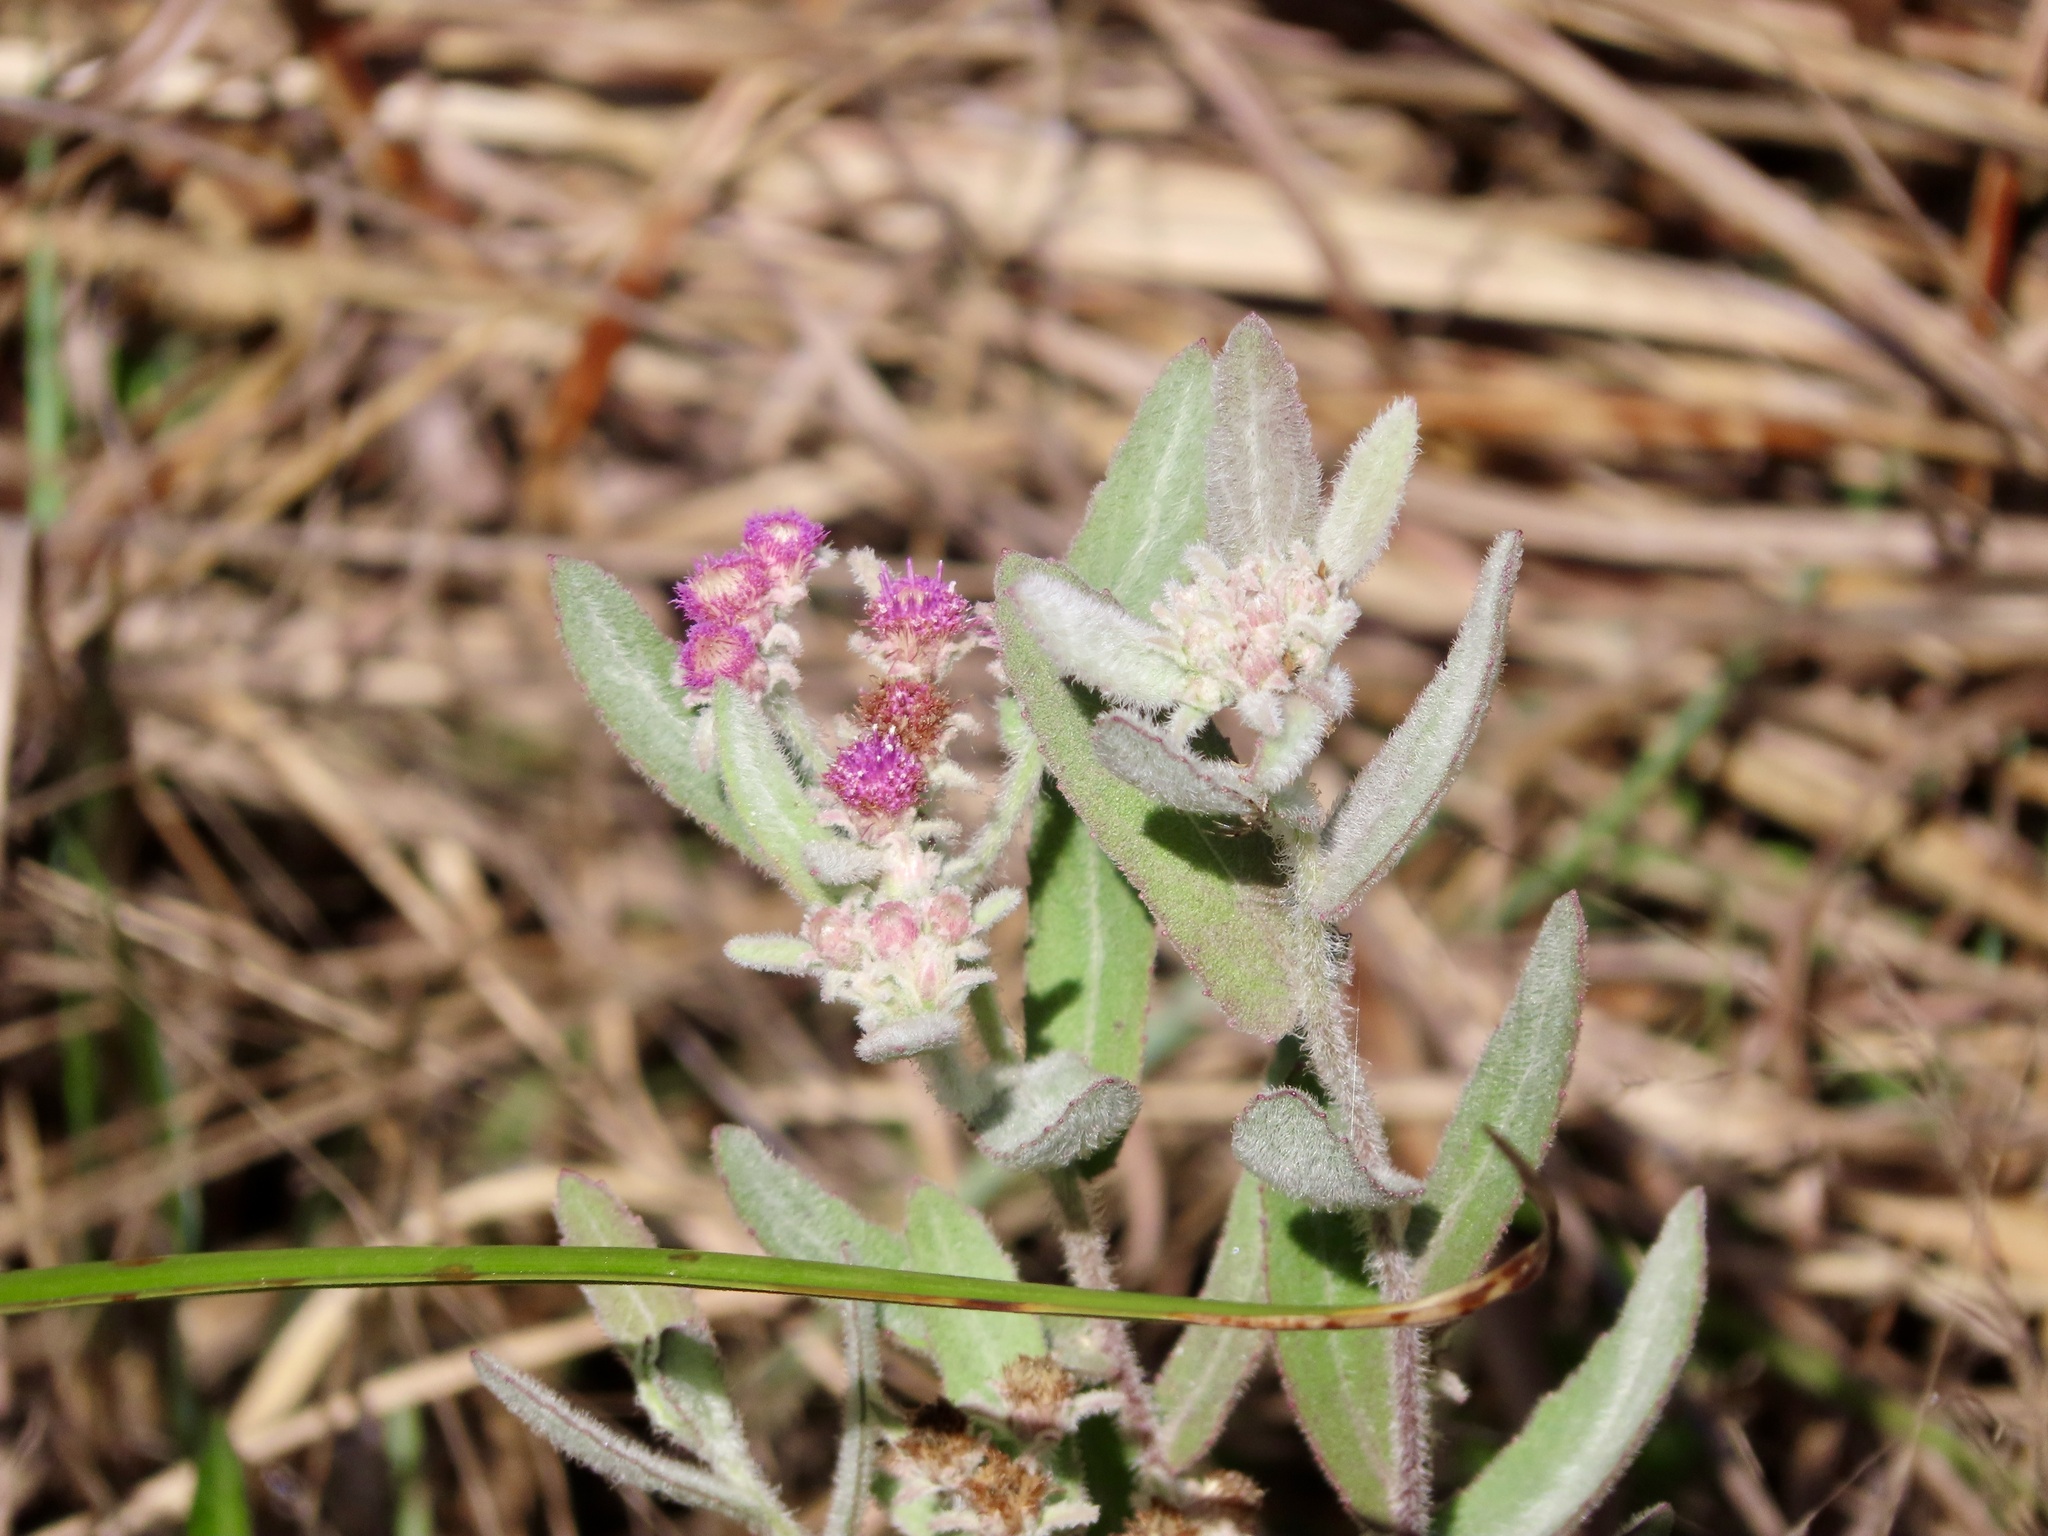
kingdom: Plantae
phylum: Tracheophyta
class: Magnoliopsida
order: Asterales
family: Asteraceae
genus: Pluchea
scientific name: Pluchea baccharis
